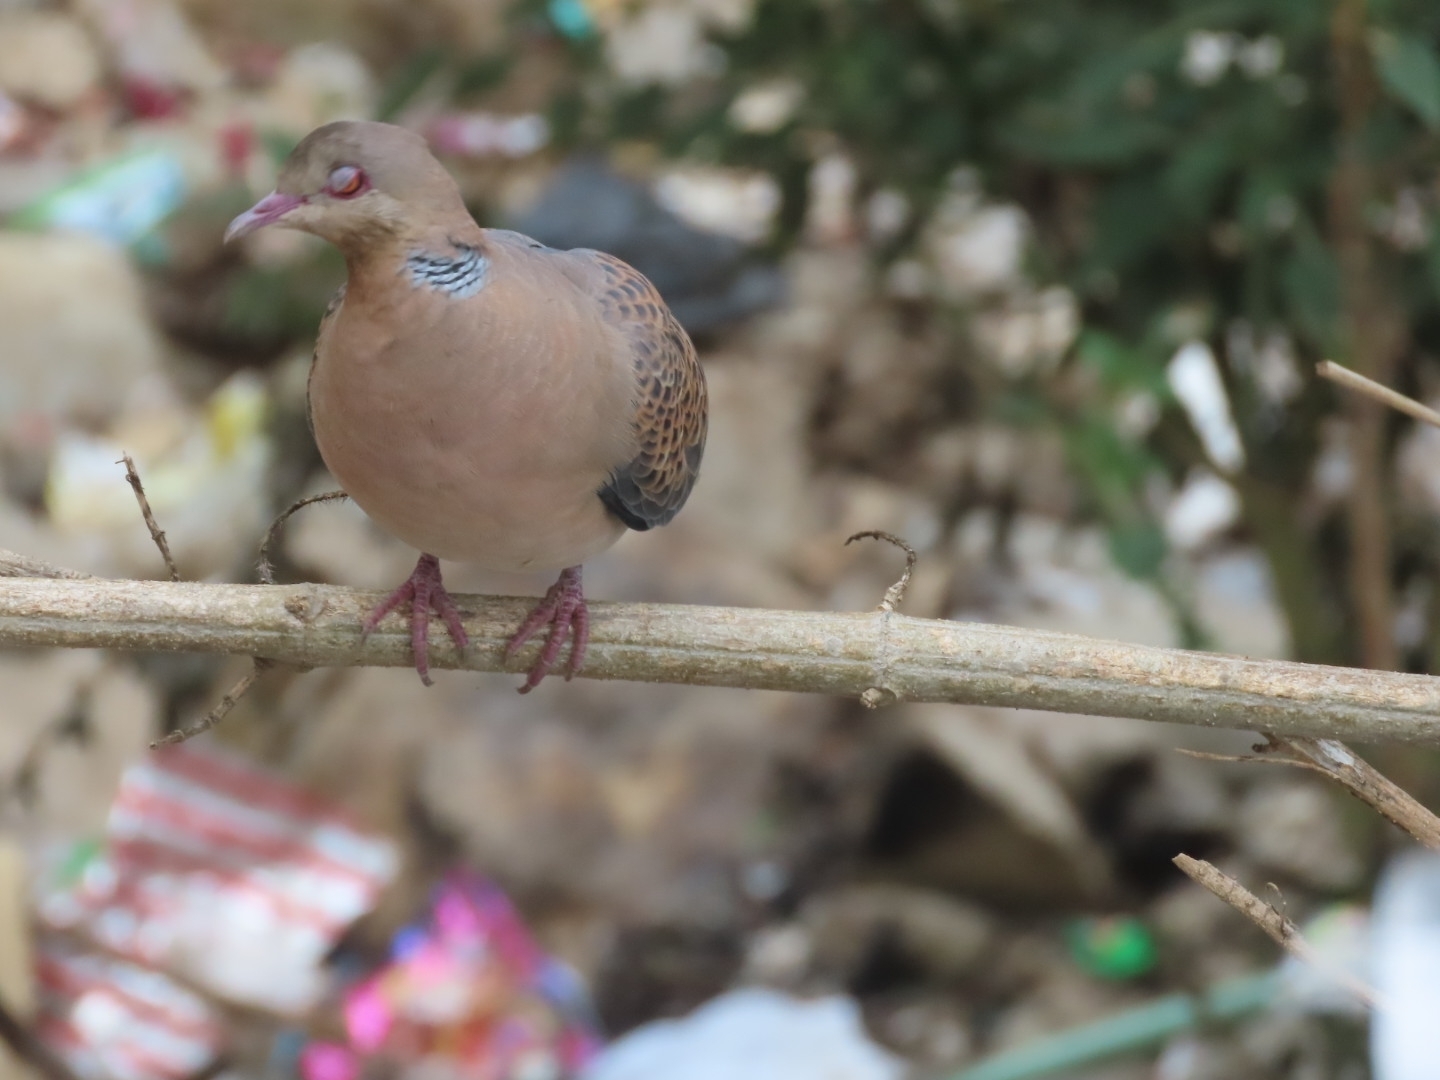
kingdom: Animalia
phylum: Chordata
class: Aves
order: Columbiformes
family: Columbidae
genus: Streptopelia
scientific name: Streptopelia orientalis
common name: Oriental turtle dove
